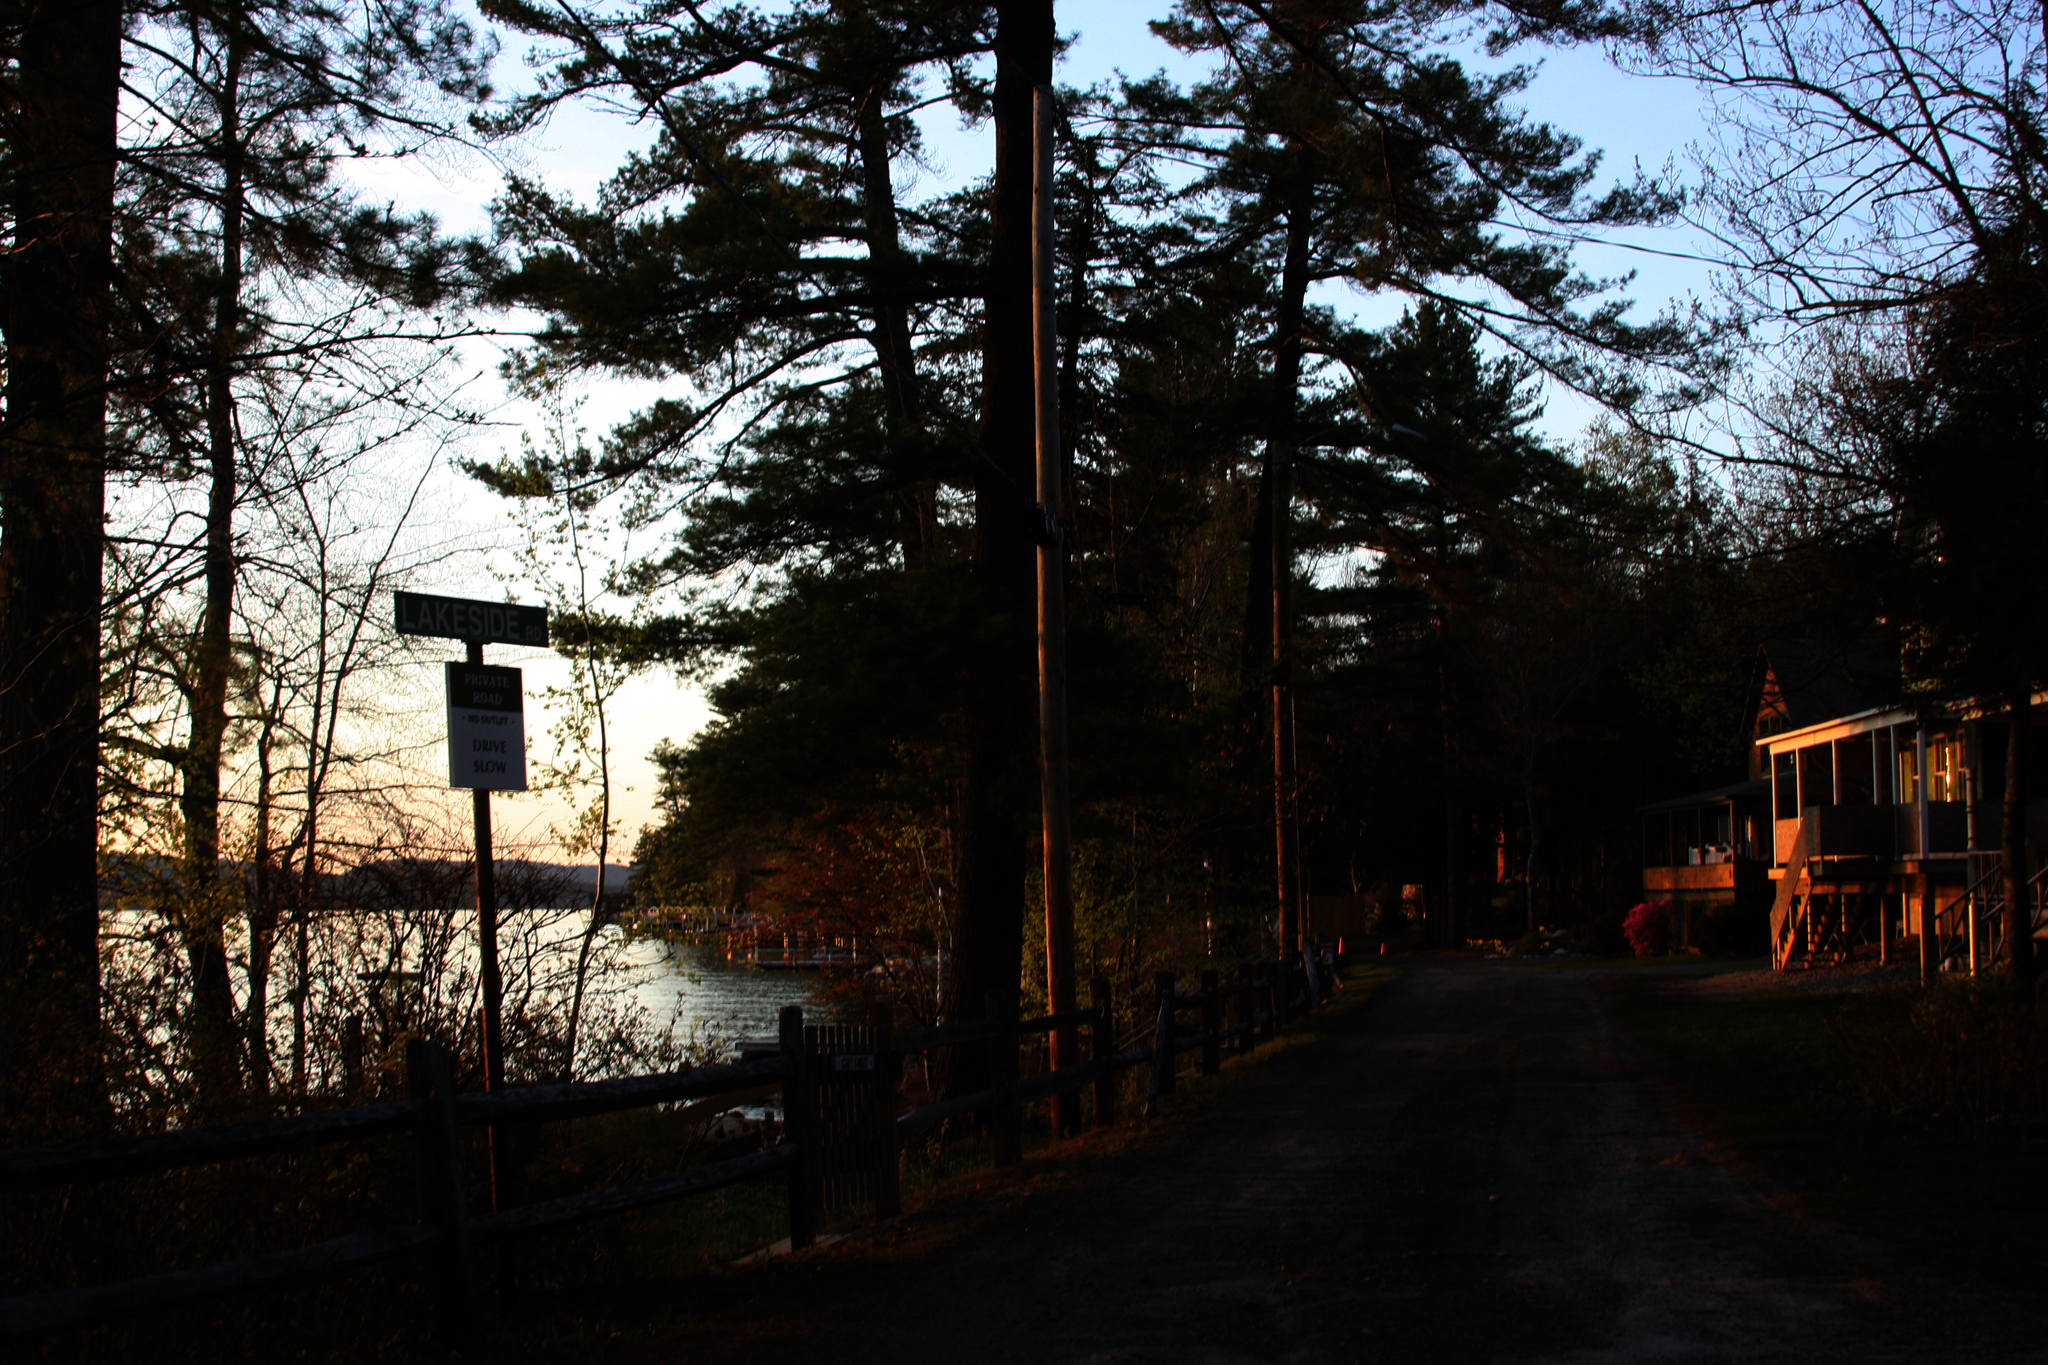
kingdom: Plantae
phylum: Tracheophyta
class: Pinopsida
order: Pinales
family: Pinaceae
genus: Pinus
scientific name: Pinus strobus
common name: Weymouth pine
